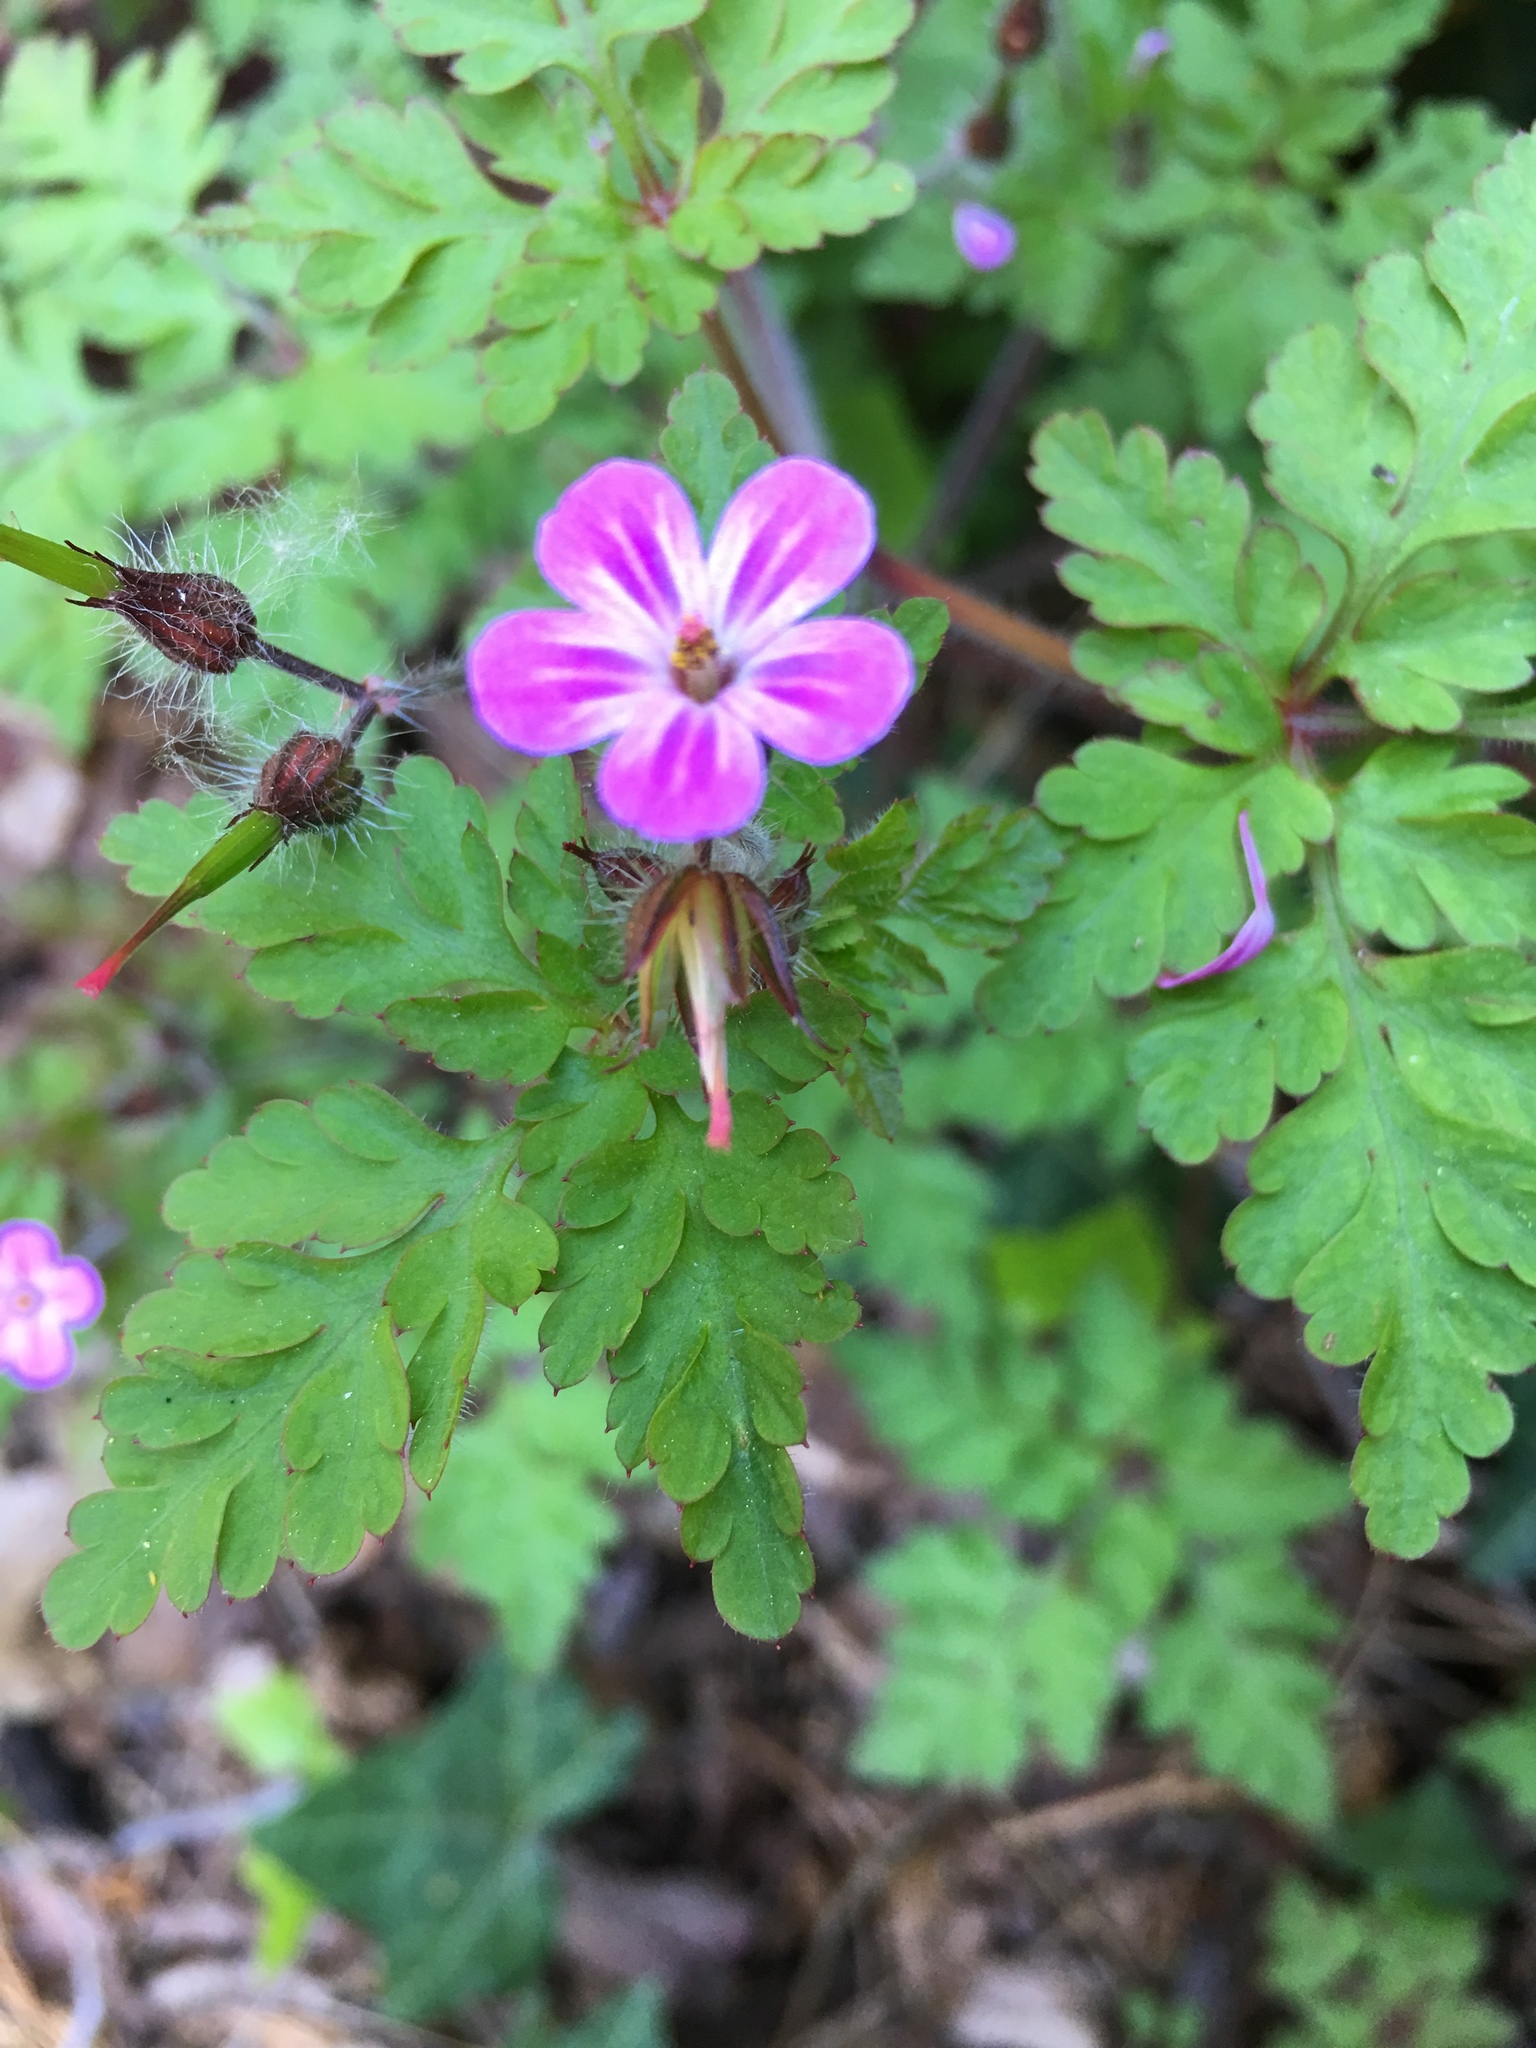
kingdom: Plantae
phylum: Tracheophyta
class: Magnoliopsida
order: Geraniales
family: Geraniaceae
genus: Geranium
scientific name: Geranium robertianum
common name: Herb-robert
